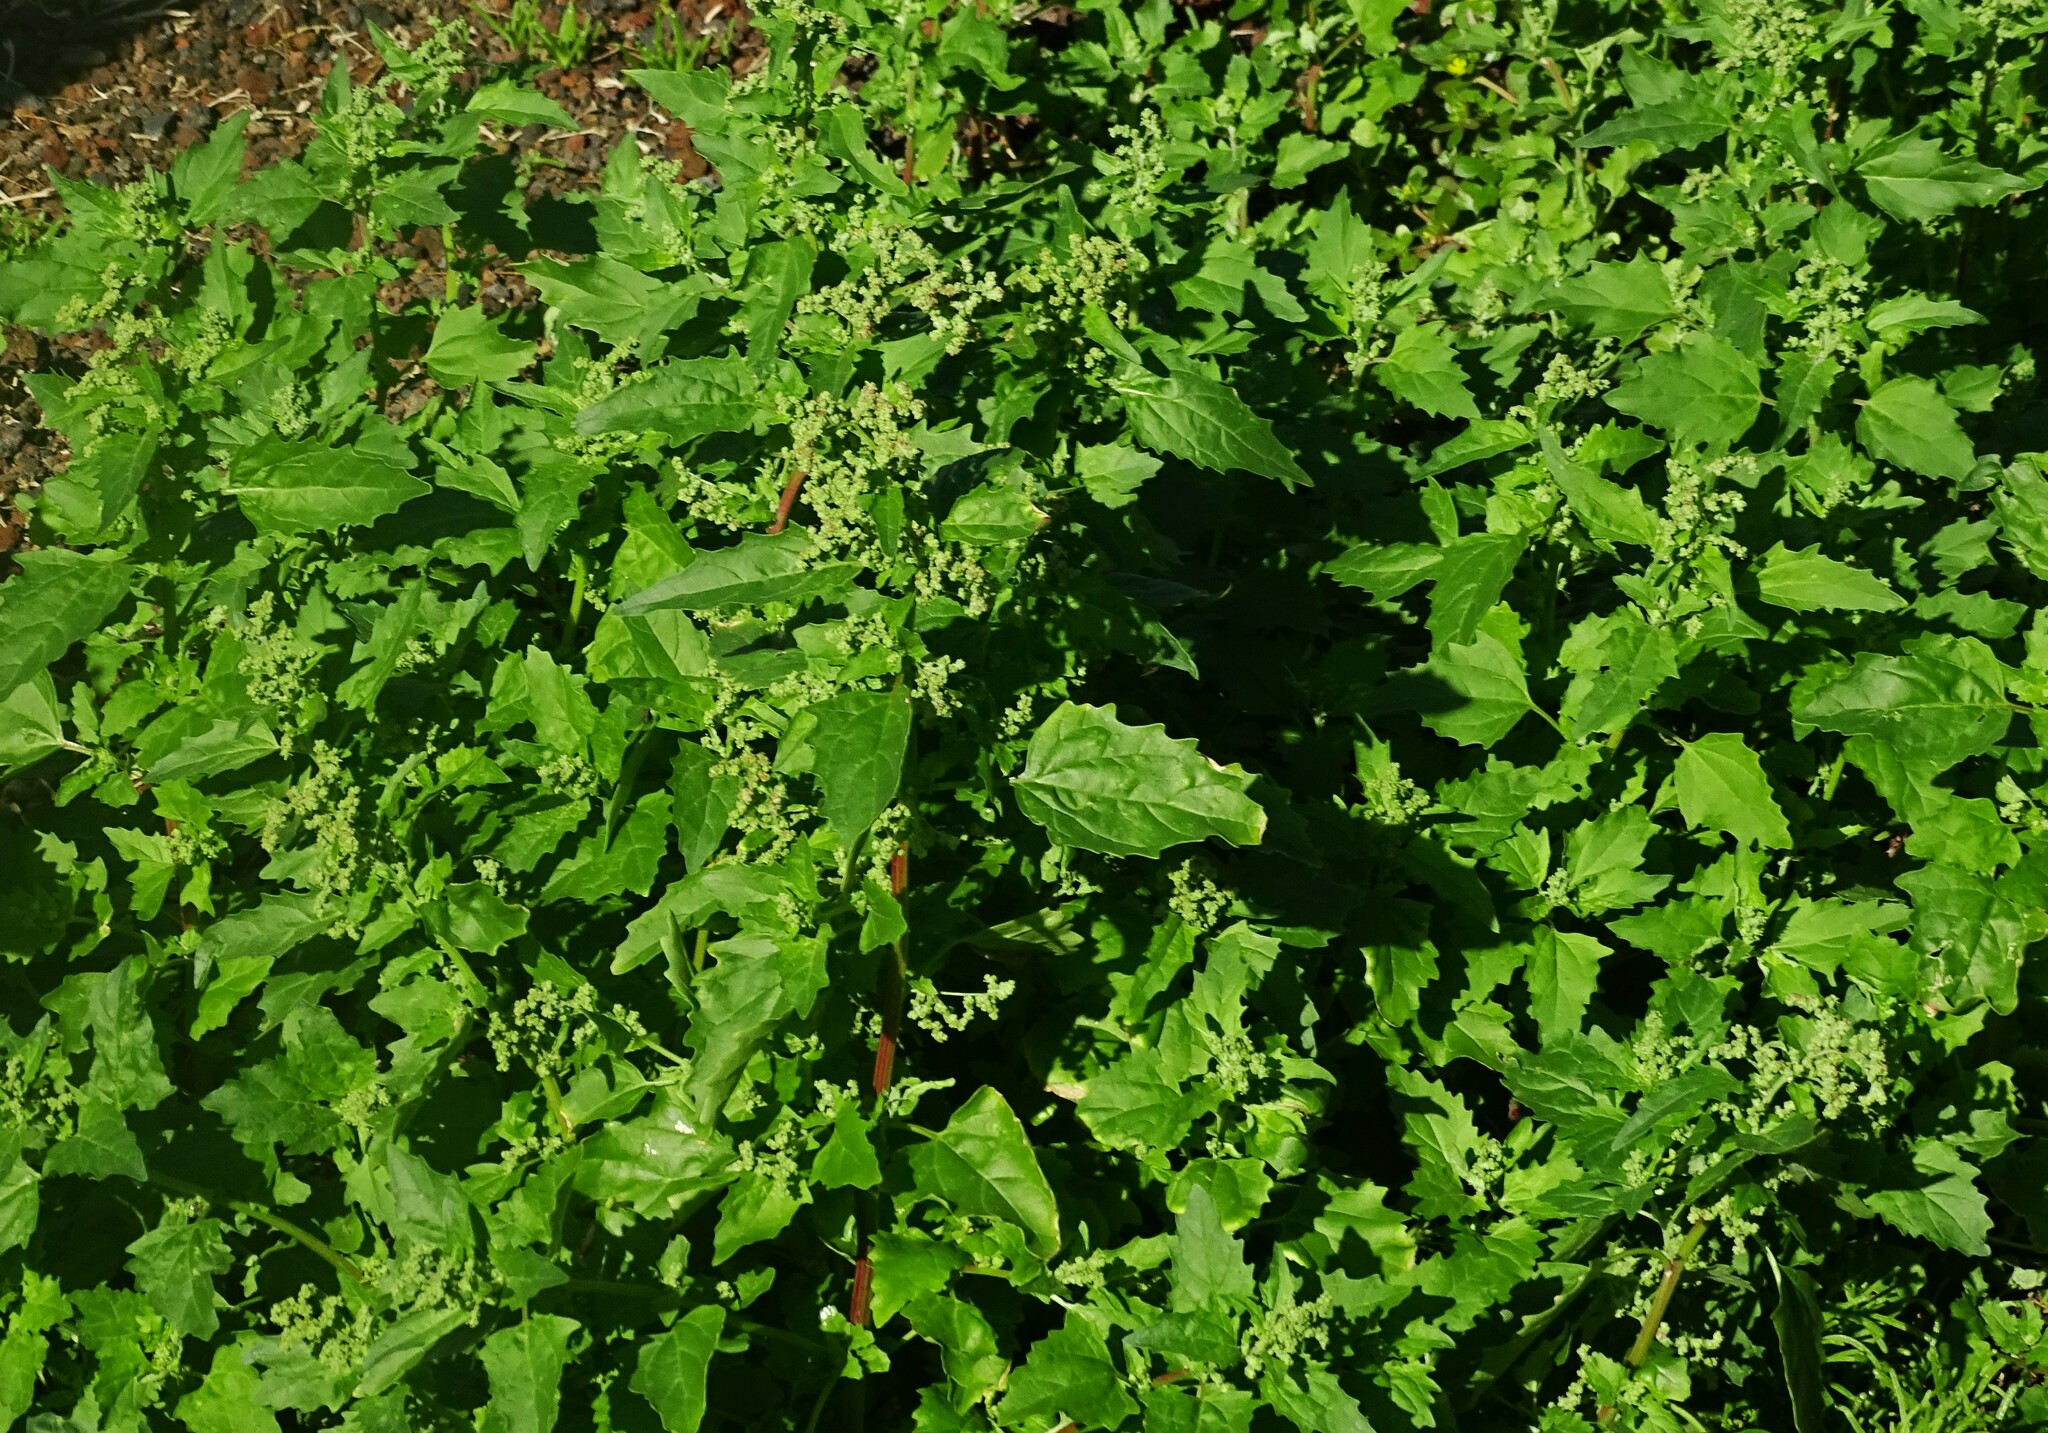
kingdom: Plantae
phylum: Tracheophyta
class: Magnoliopsida
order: Caryophyllales
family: Amaranthaceae
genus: Chenopodiastrum
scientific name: Chenopodiastrum murale
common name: Sowbane
